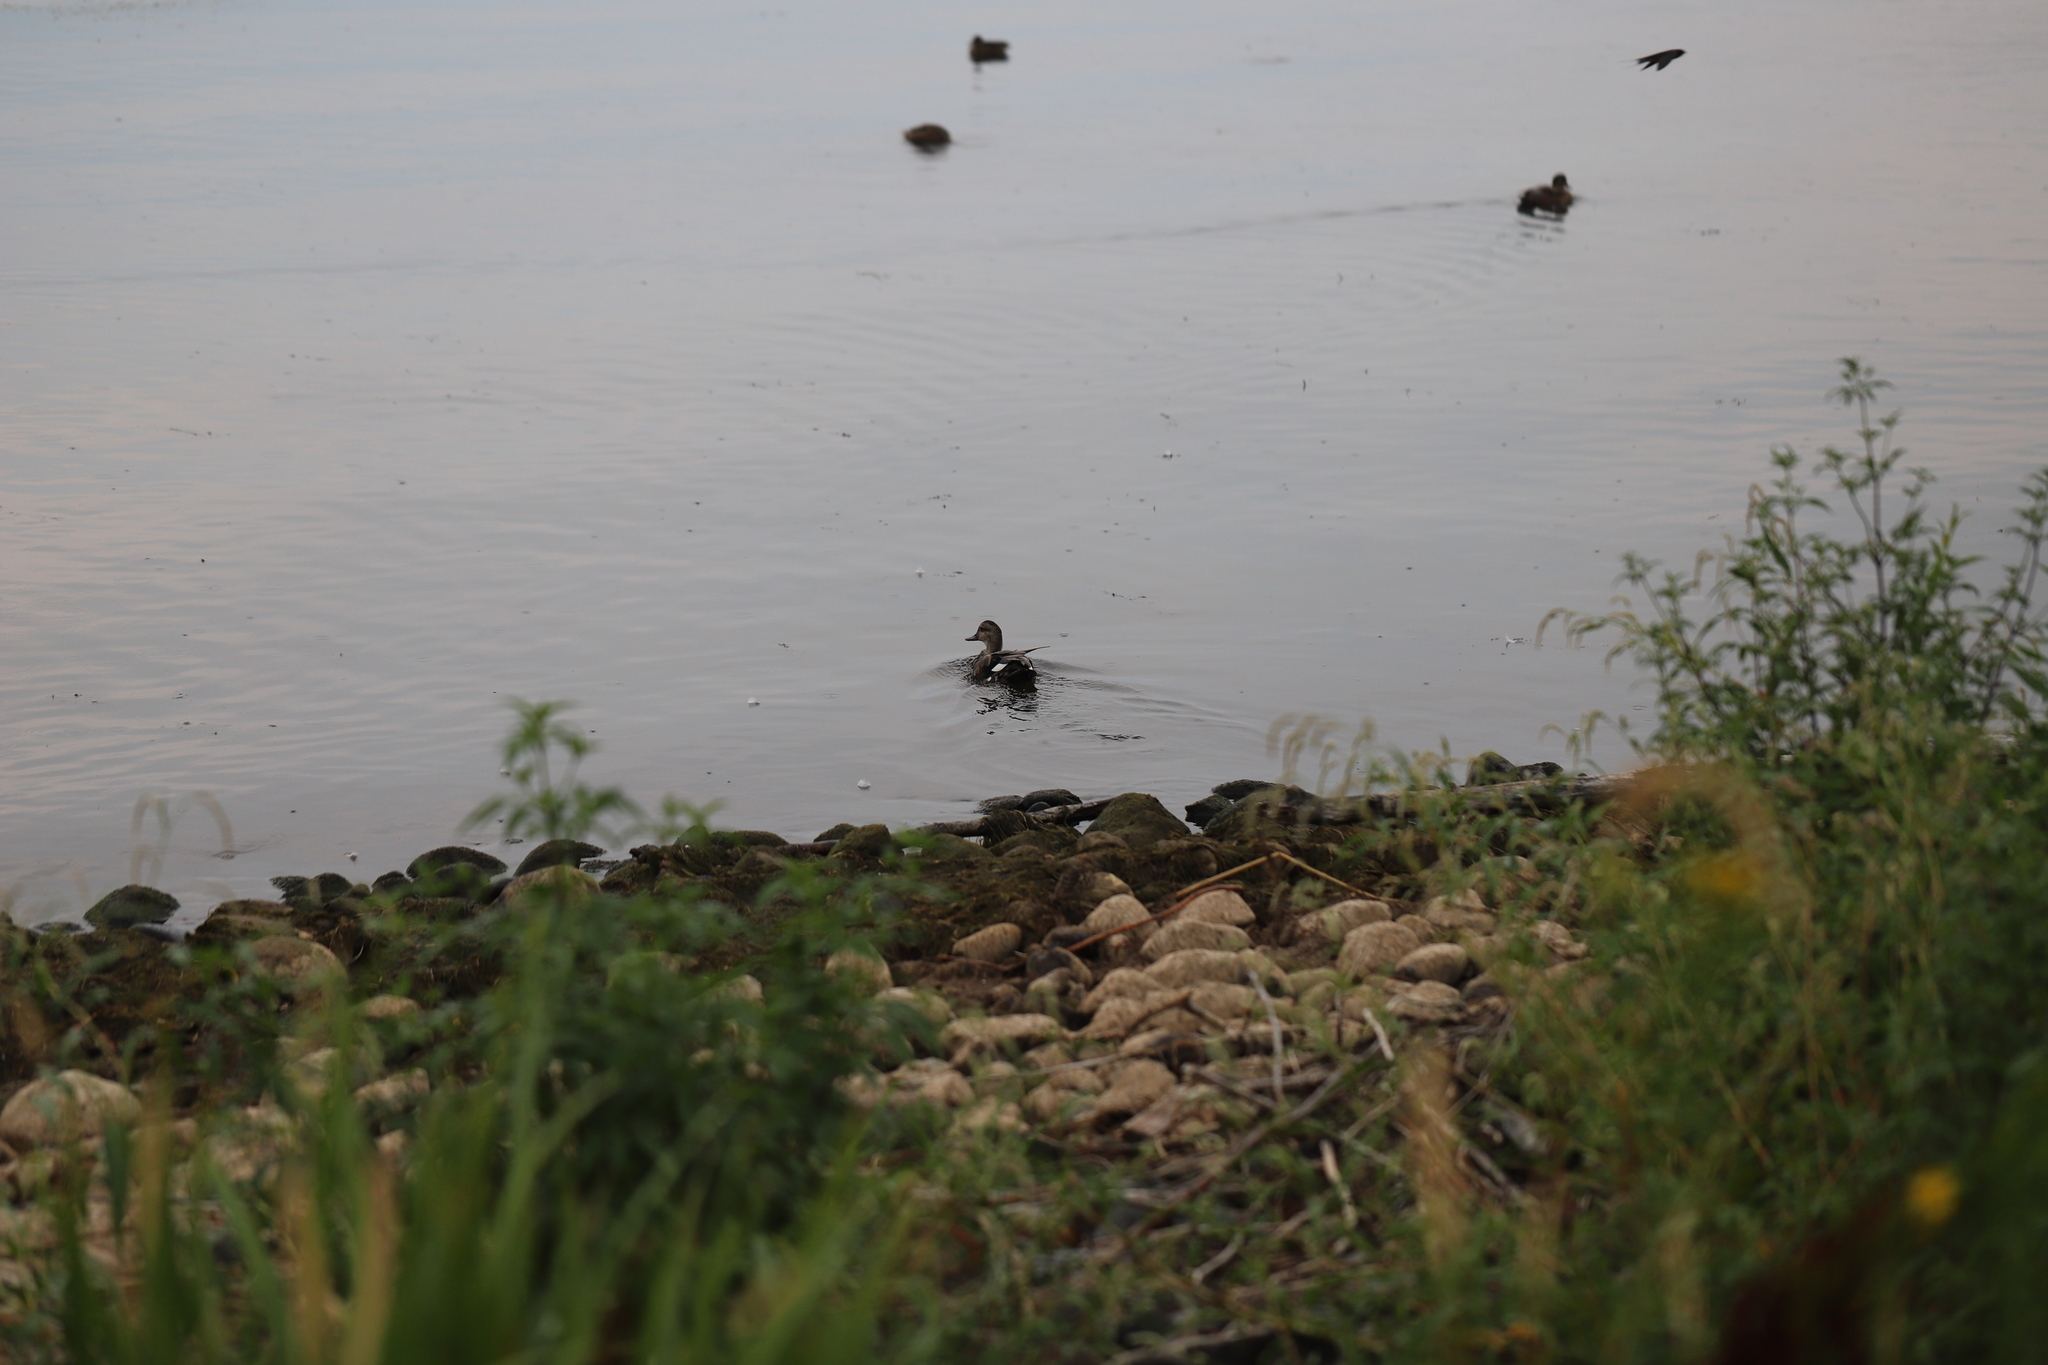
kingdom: Animalia
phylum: Chordata
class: Aves
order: Anseriformes
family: Anatidae
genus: Mareca
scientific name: Mareca strepera
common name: Gadwall
